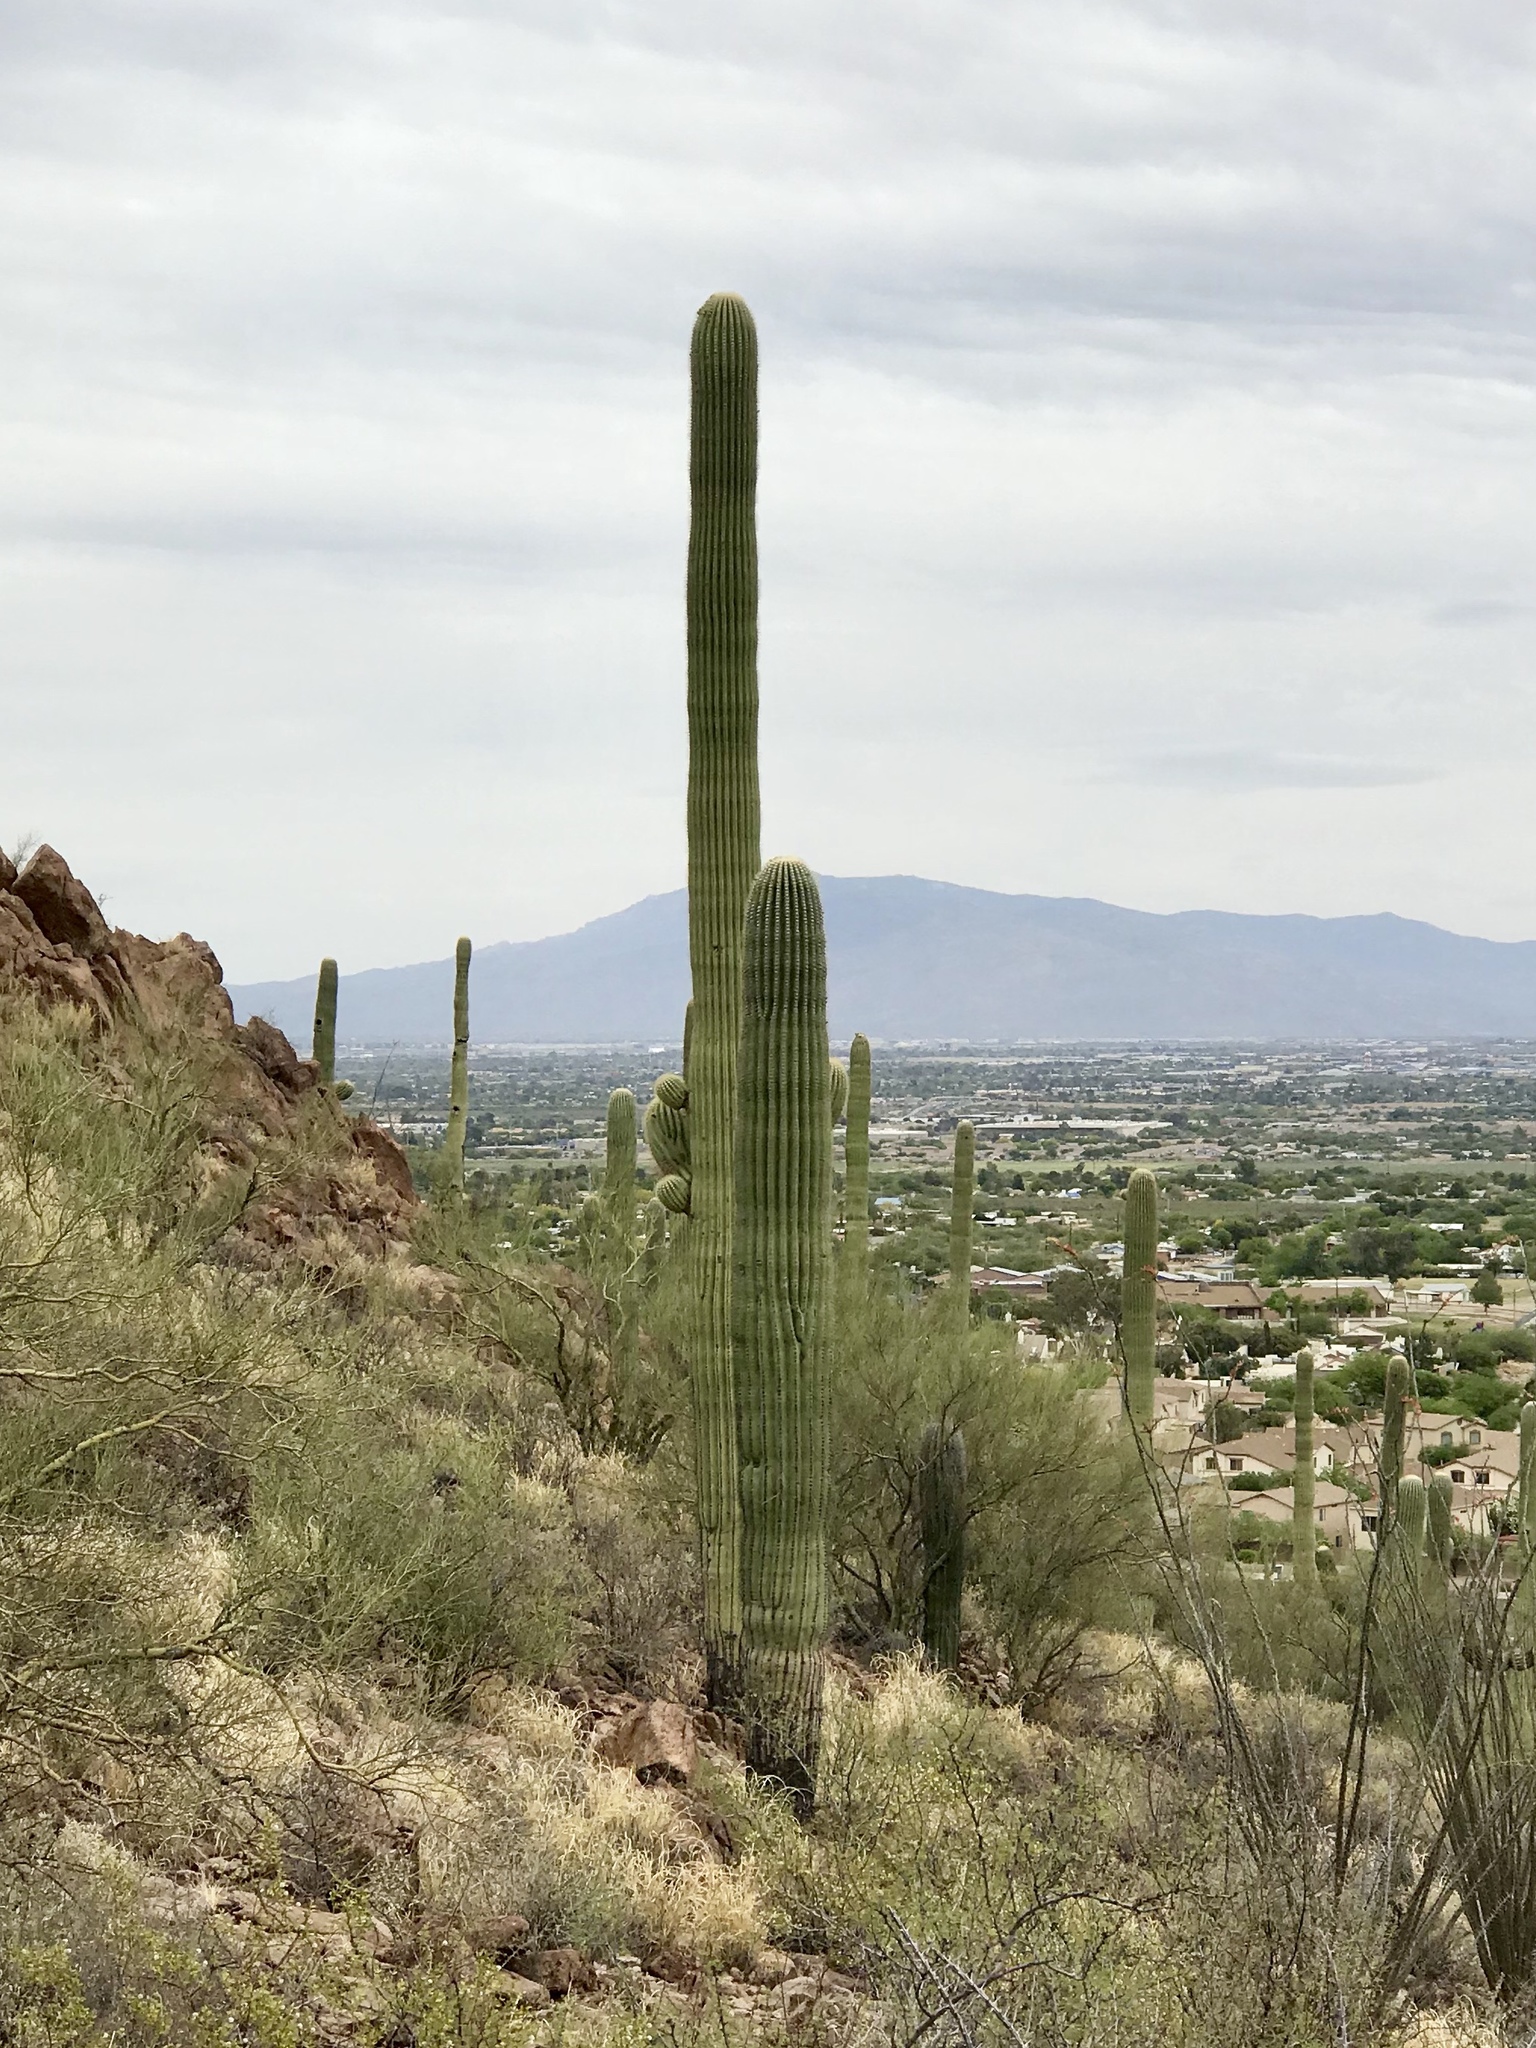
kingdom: Plantae
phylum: Tracheophyta
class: Magnoliopsida
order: Caryophyllales
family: Cactaceae
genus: Carnegiea
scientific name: Carnegiea gigantea
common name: Saguaro
